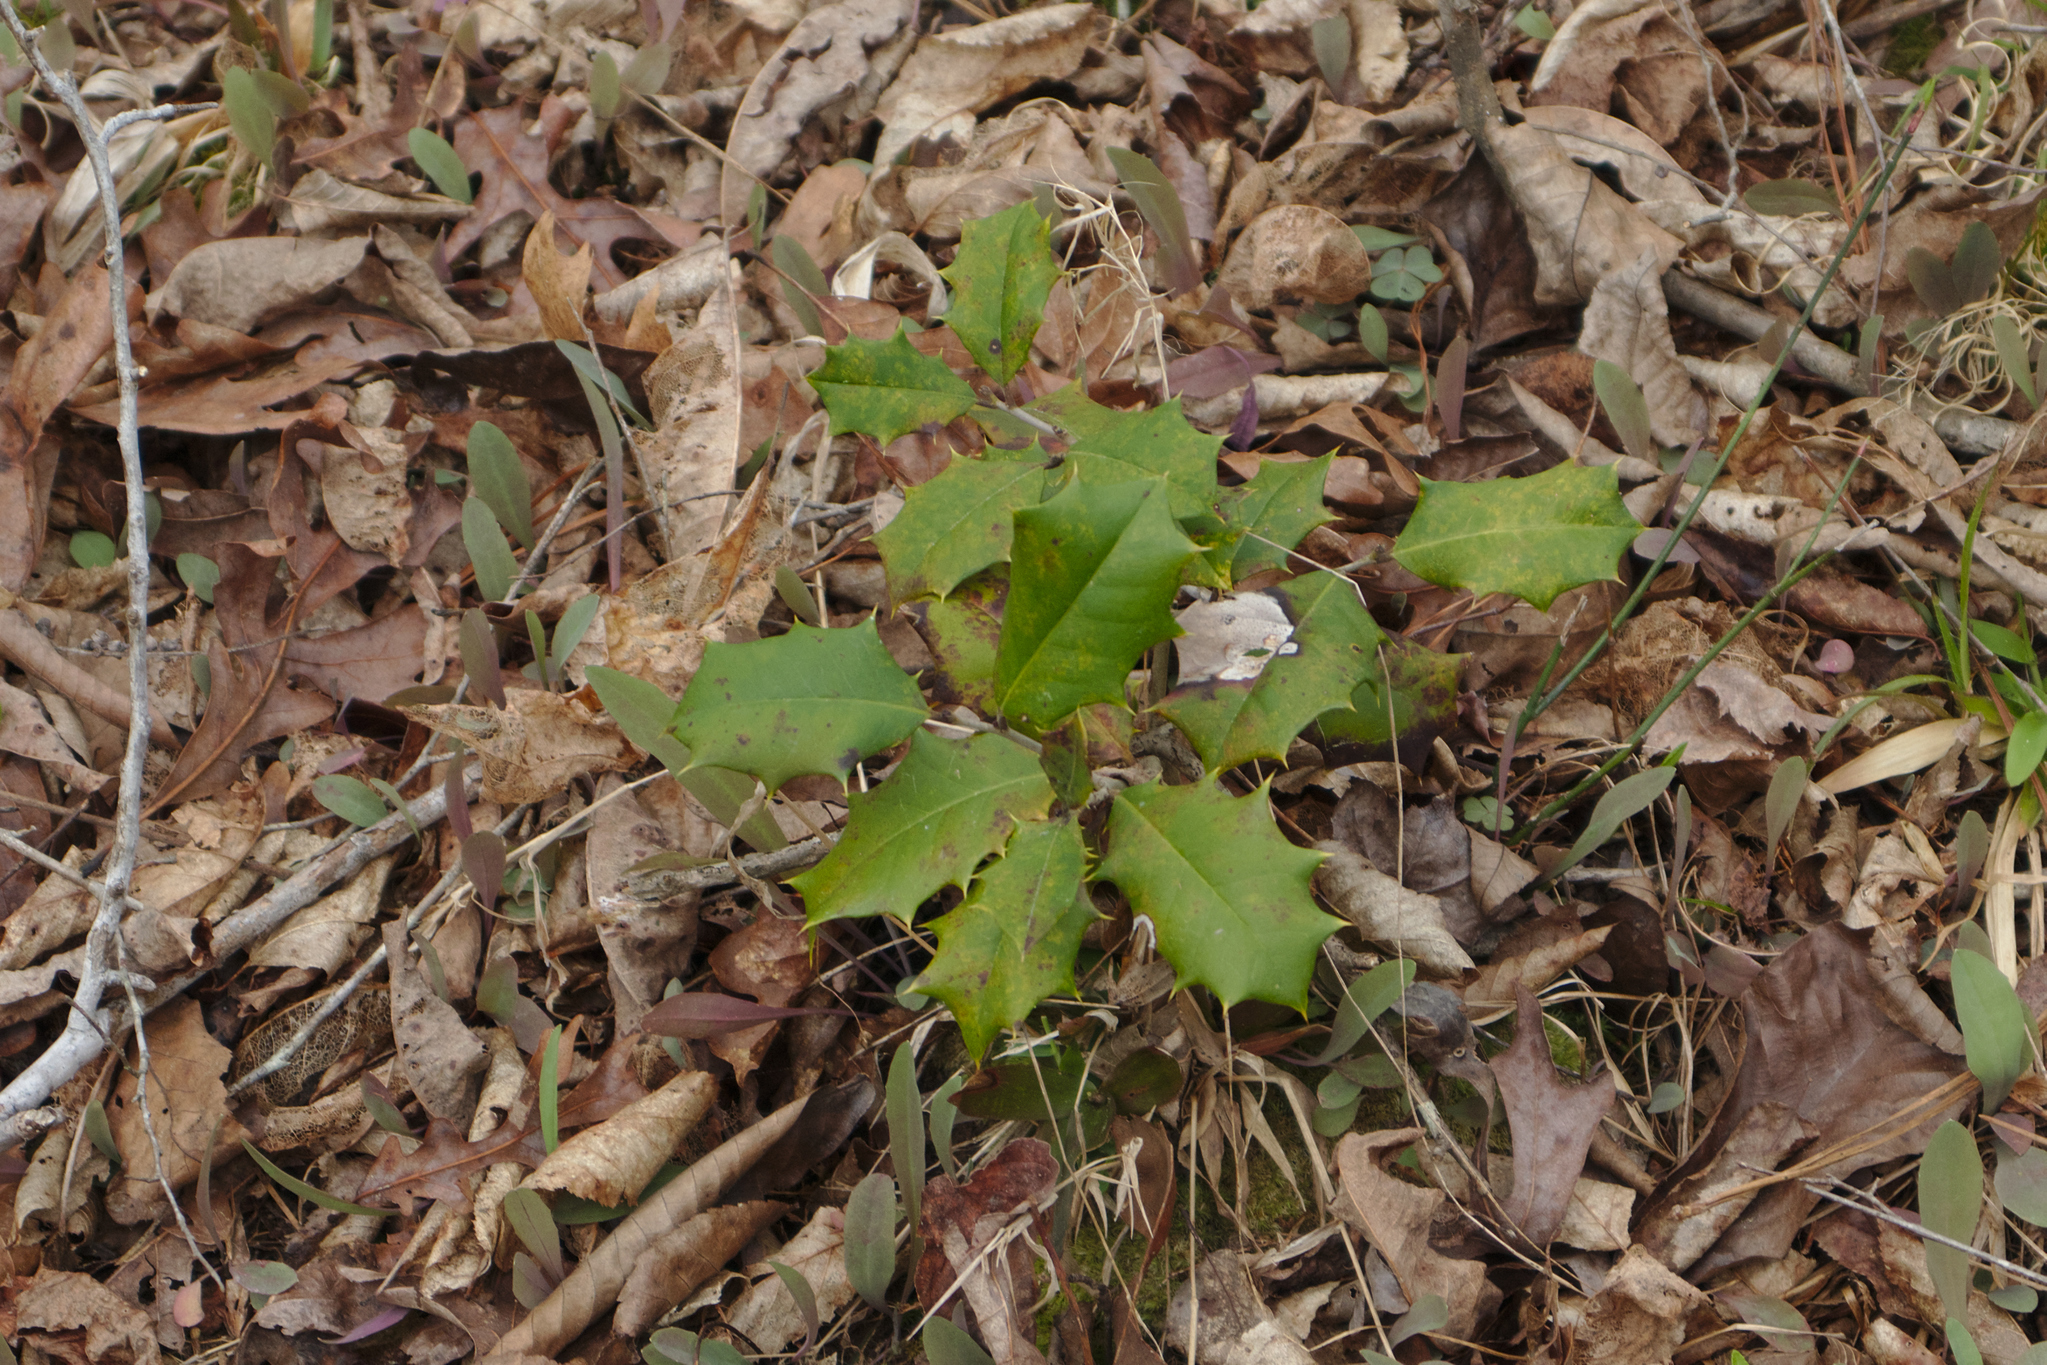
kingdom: Plantae
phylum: Tracheophyta
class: Magnoliopsida
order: Aquifoliales
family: Aquifoliaceae
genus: Ilex
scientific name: Ilex opaca
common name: American holly
